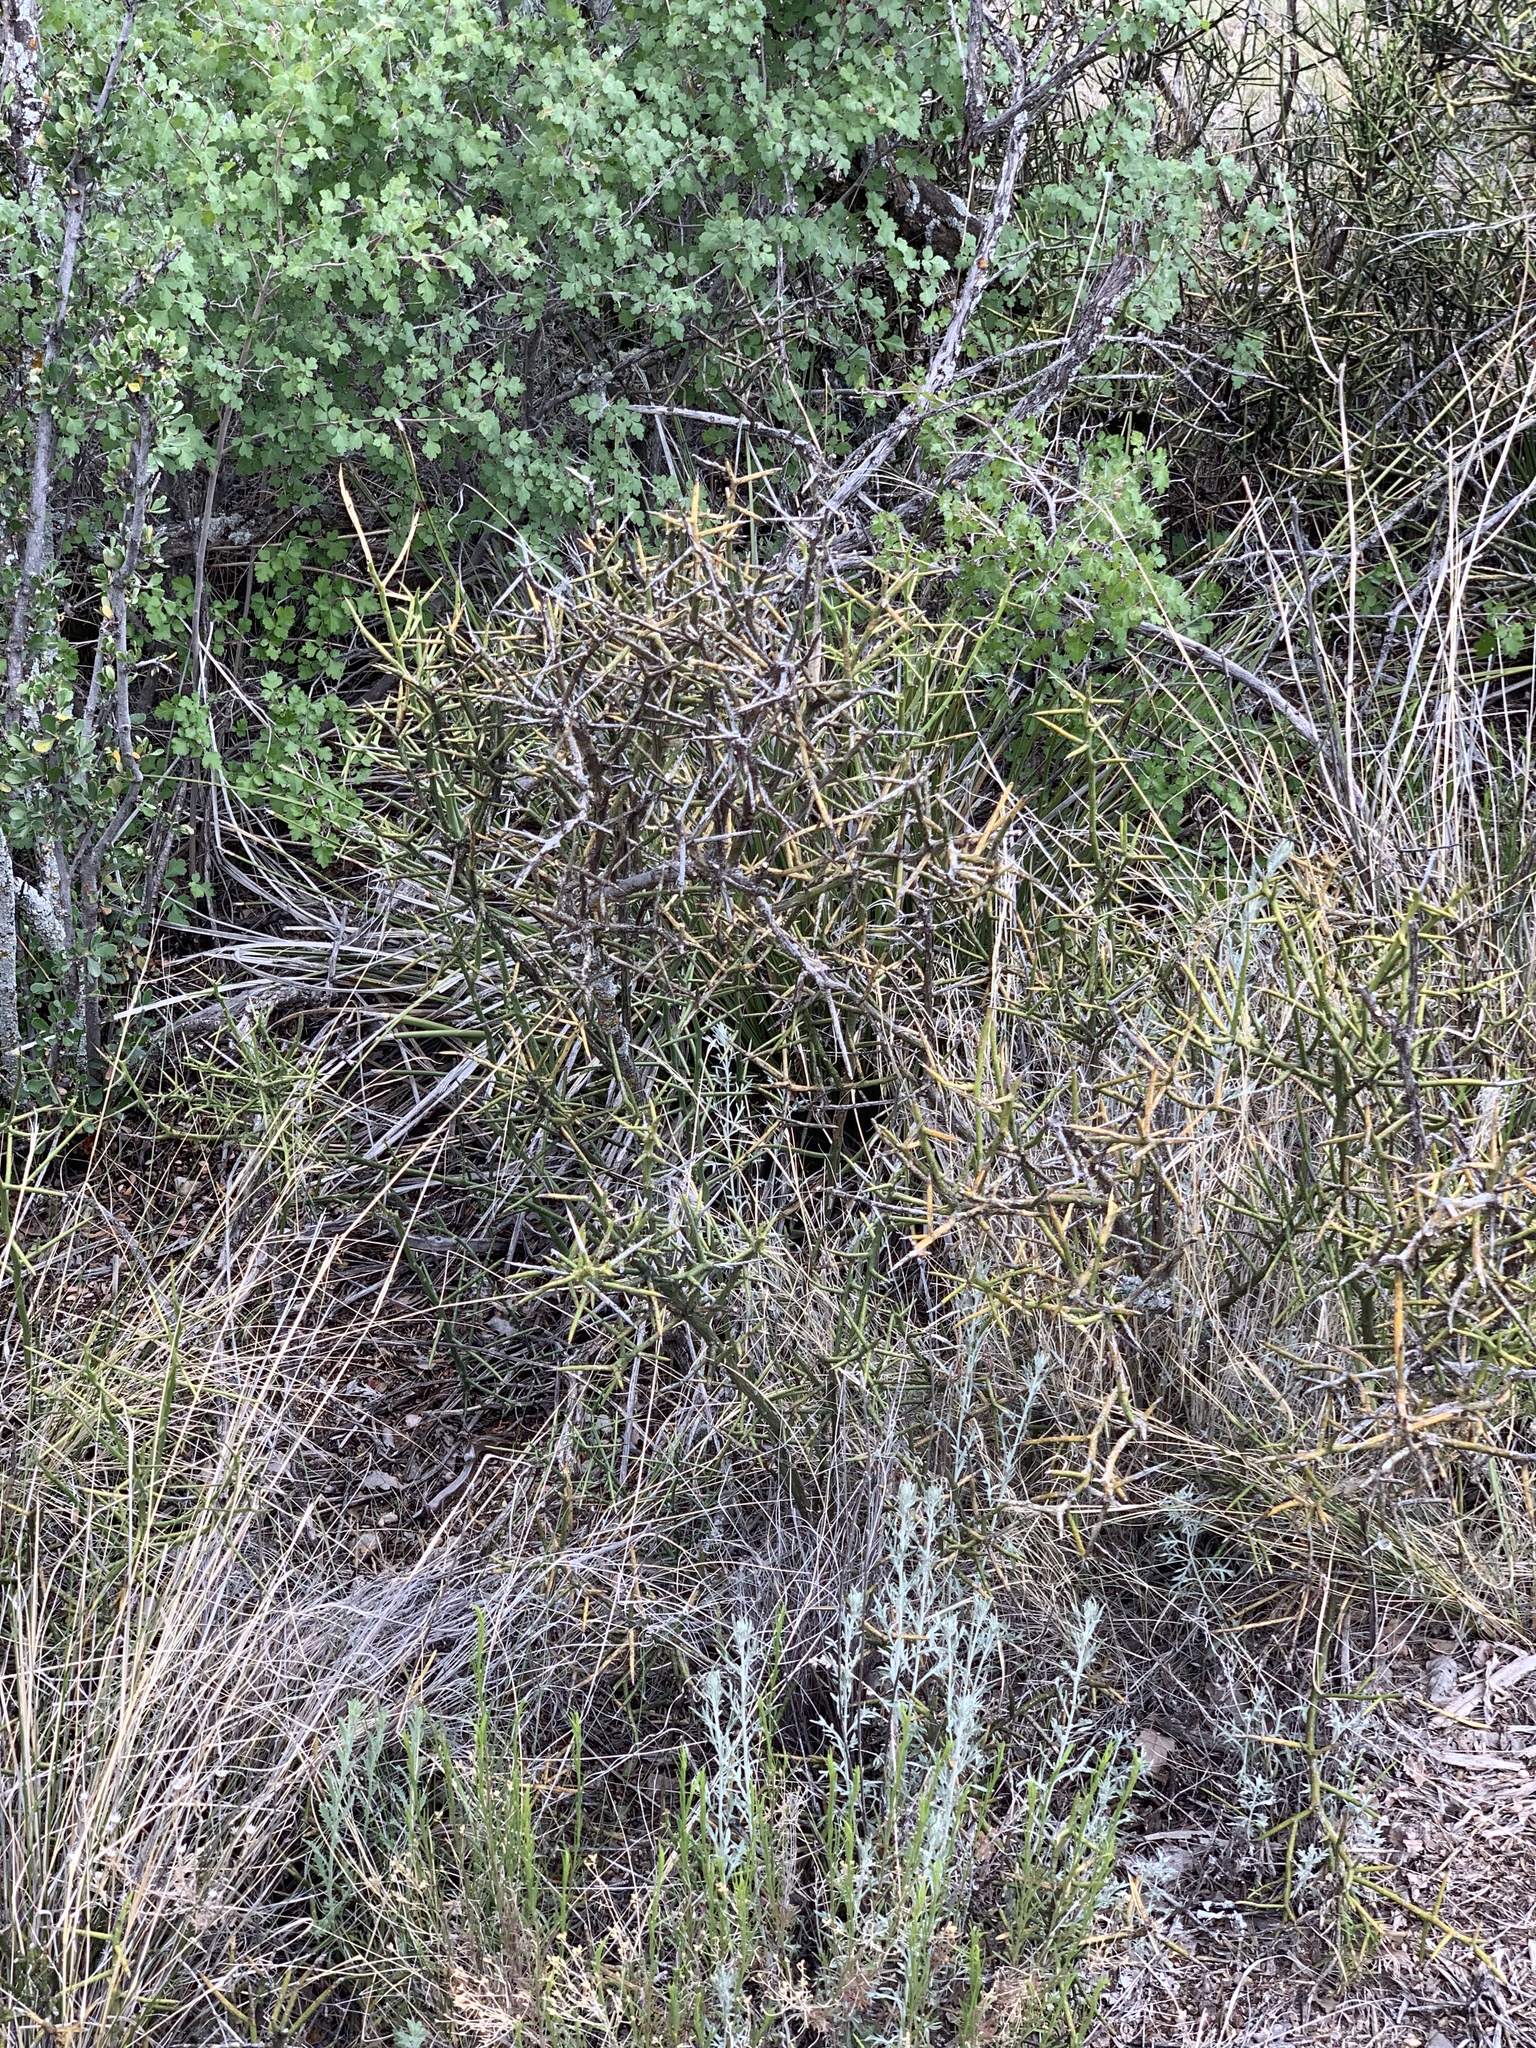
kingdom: Plantae
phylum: Tracheophyta
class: Magnoliopsida
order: Brassicales
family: Koeberliniaceae
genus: Koeberlinia
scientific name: Koeberlinia spinosa
